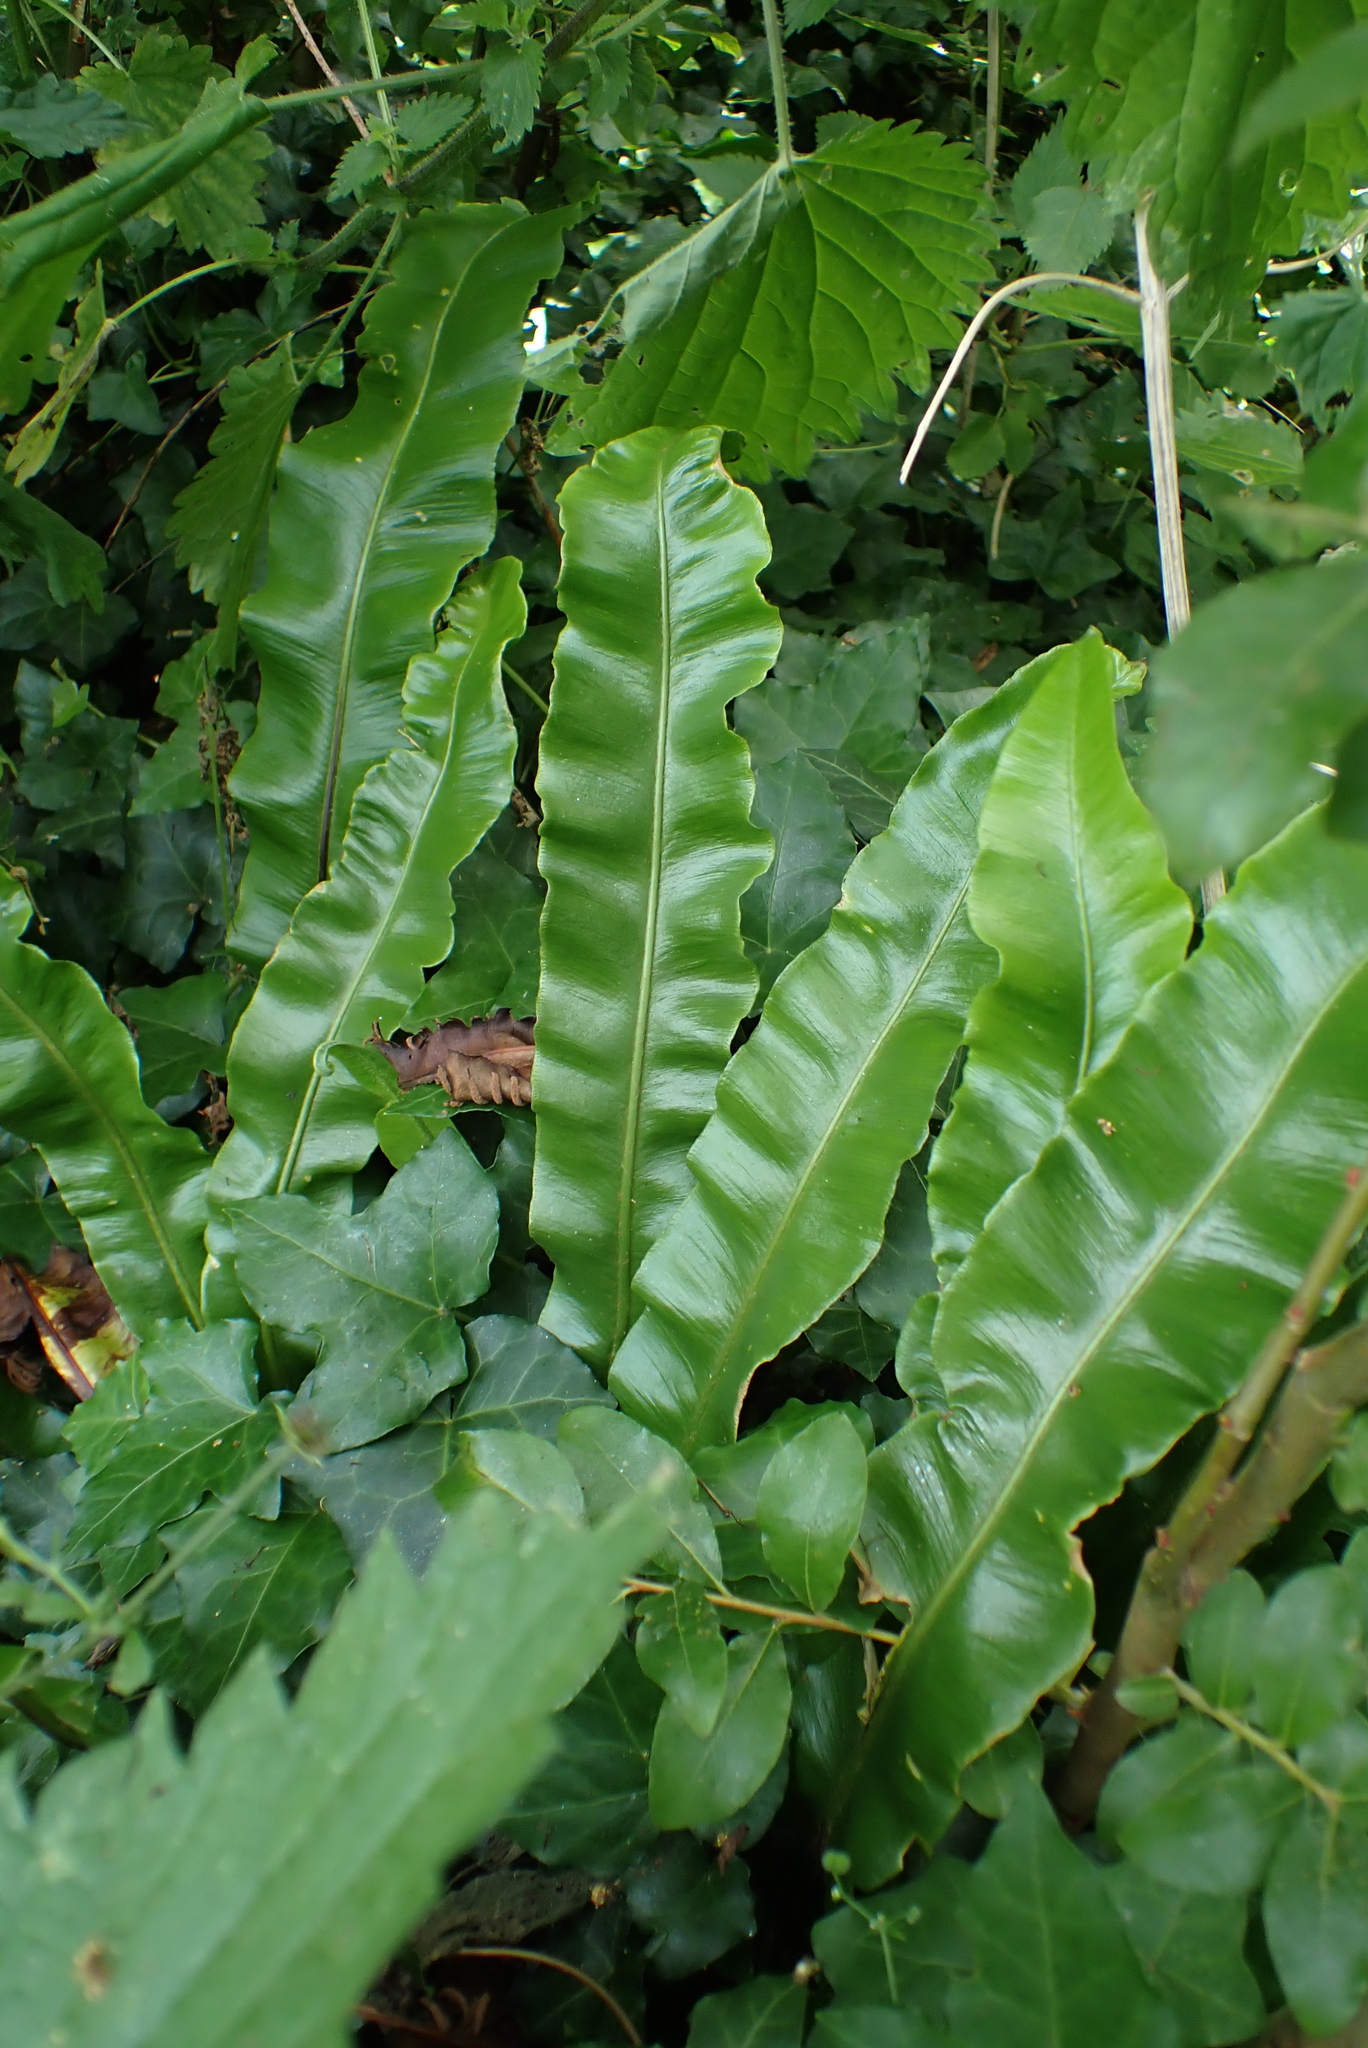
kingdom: Plantae
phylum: Tracheophyta
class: Polypodiopsida
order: Polypodiales
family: Aspleniaceae
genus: Asplenium
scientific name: Asplenium scolopendrium
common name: Hart's-tongue fern
